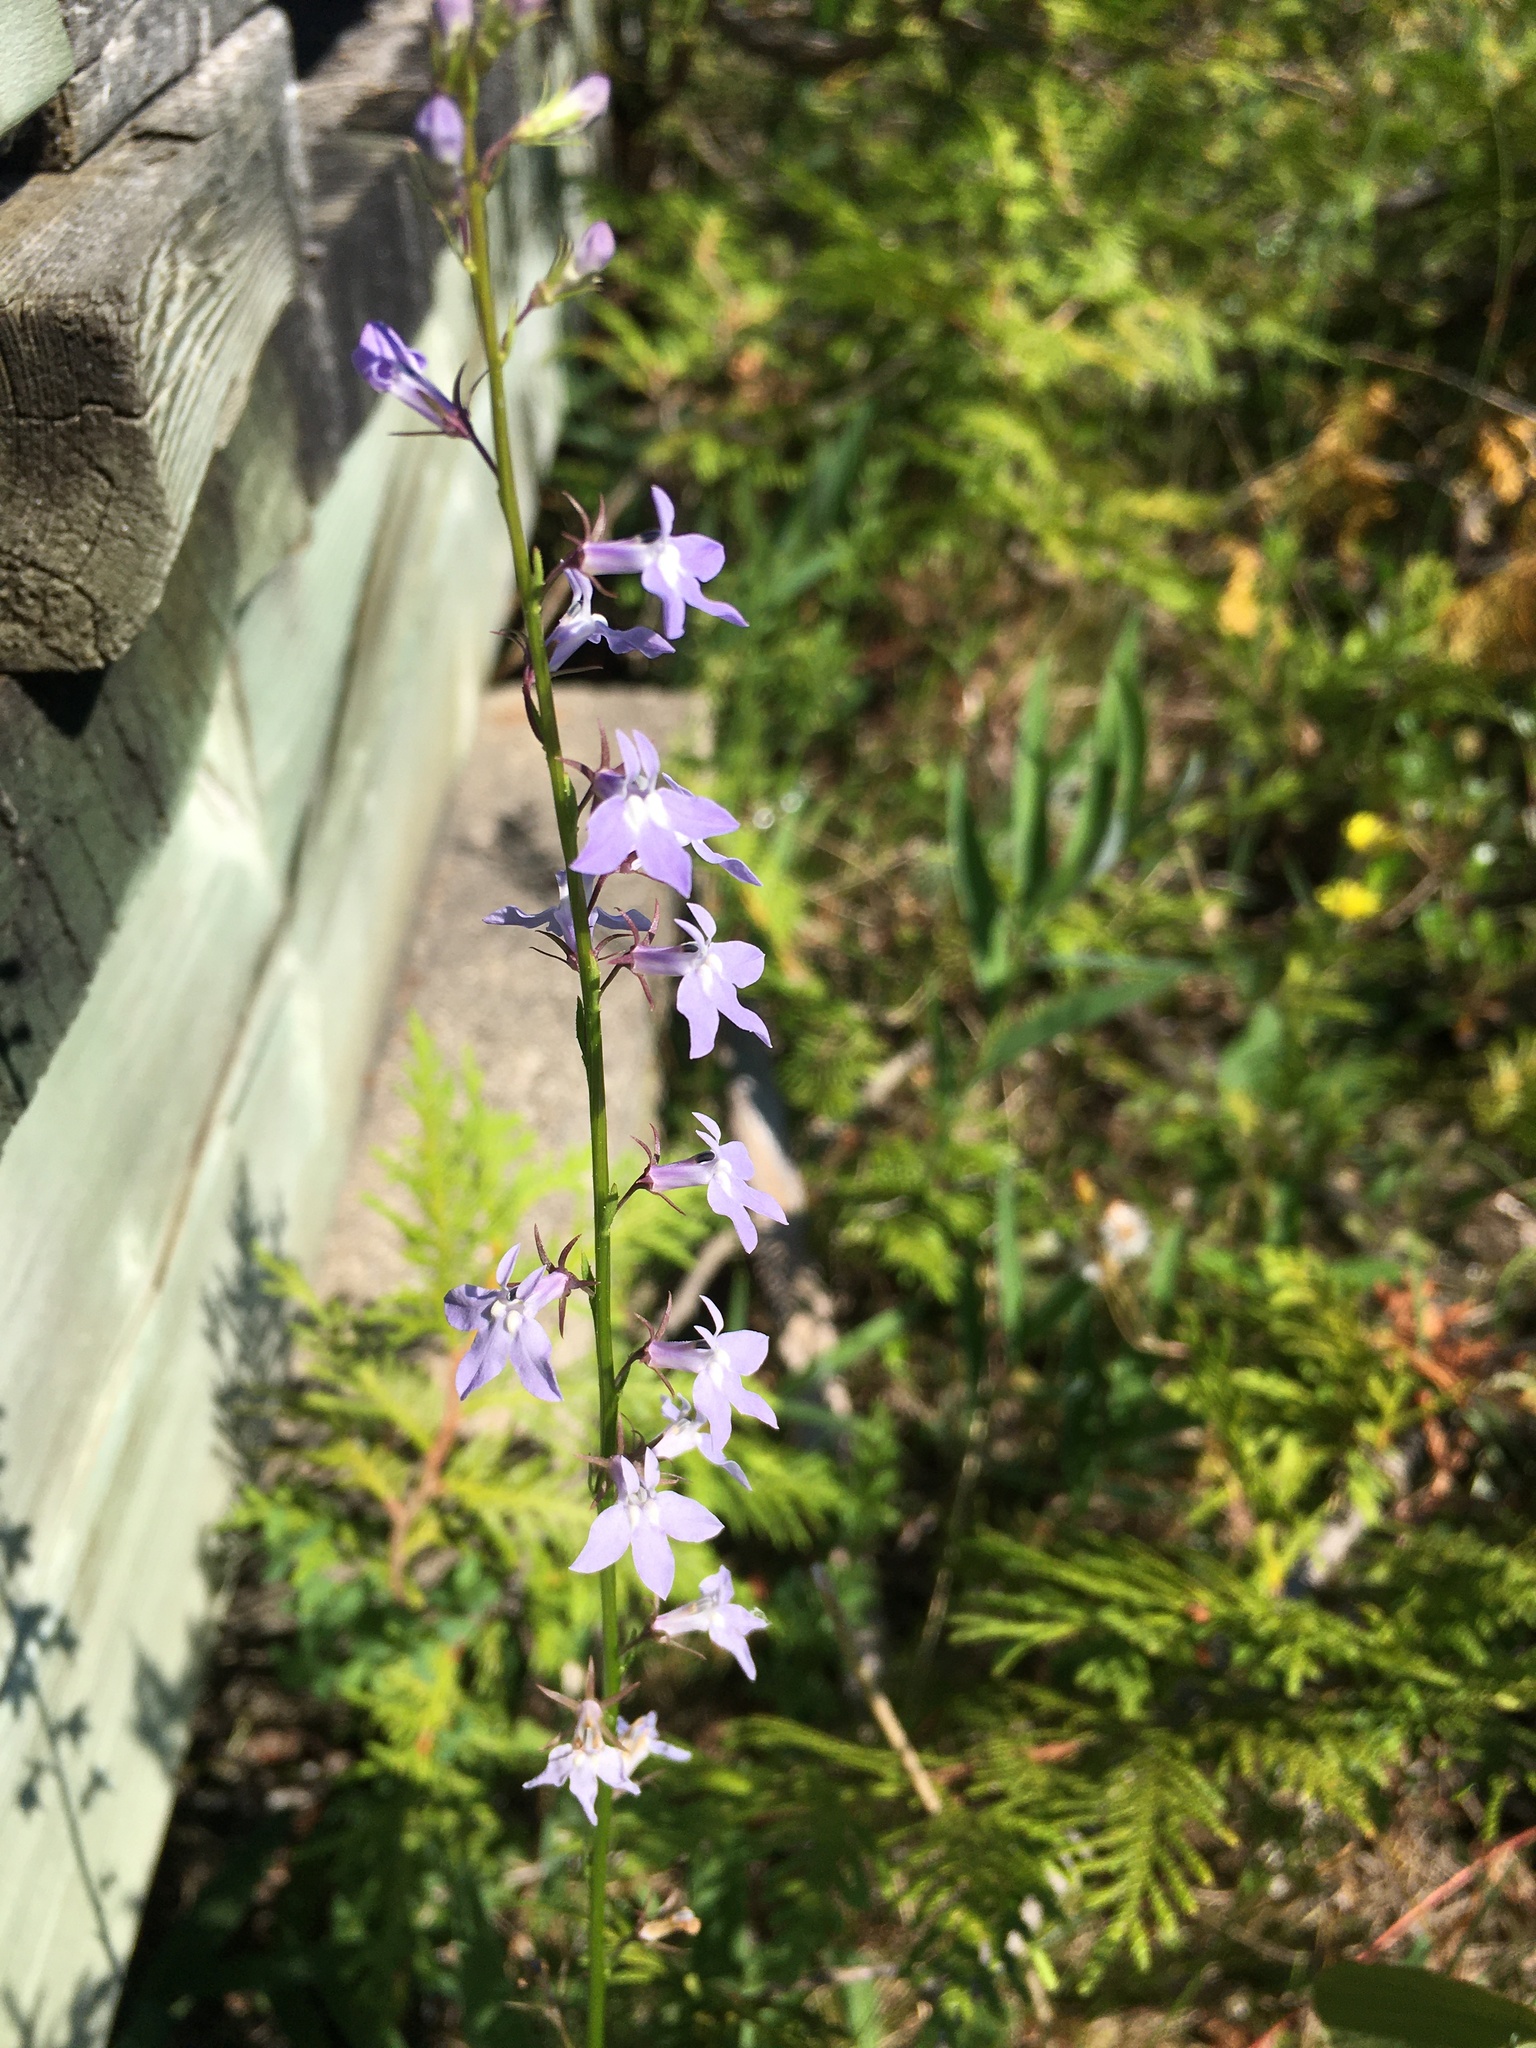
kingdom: Plantae
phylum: Tracheophyta
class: Magnoliopsida
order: Asterales
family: Campanulaceae
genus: Lobelia
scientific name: Lobelia spicata
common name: Pale-spike lobelia
